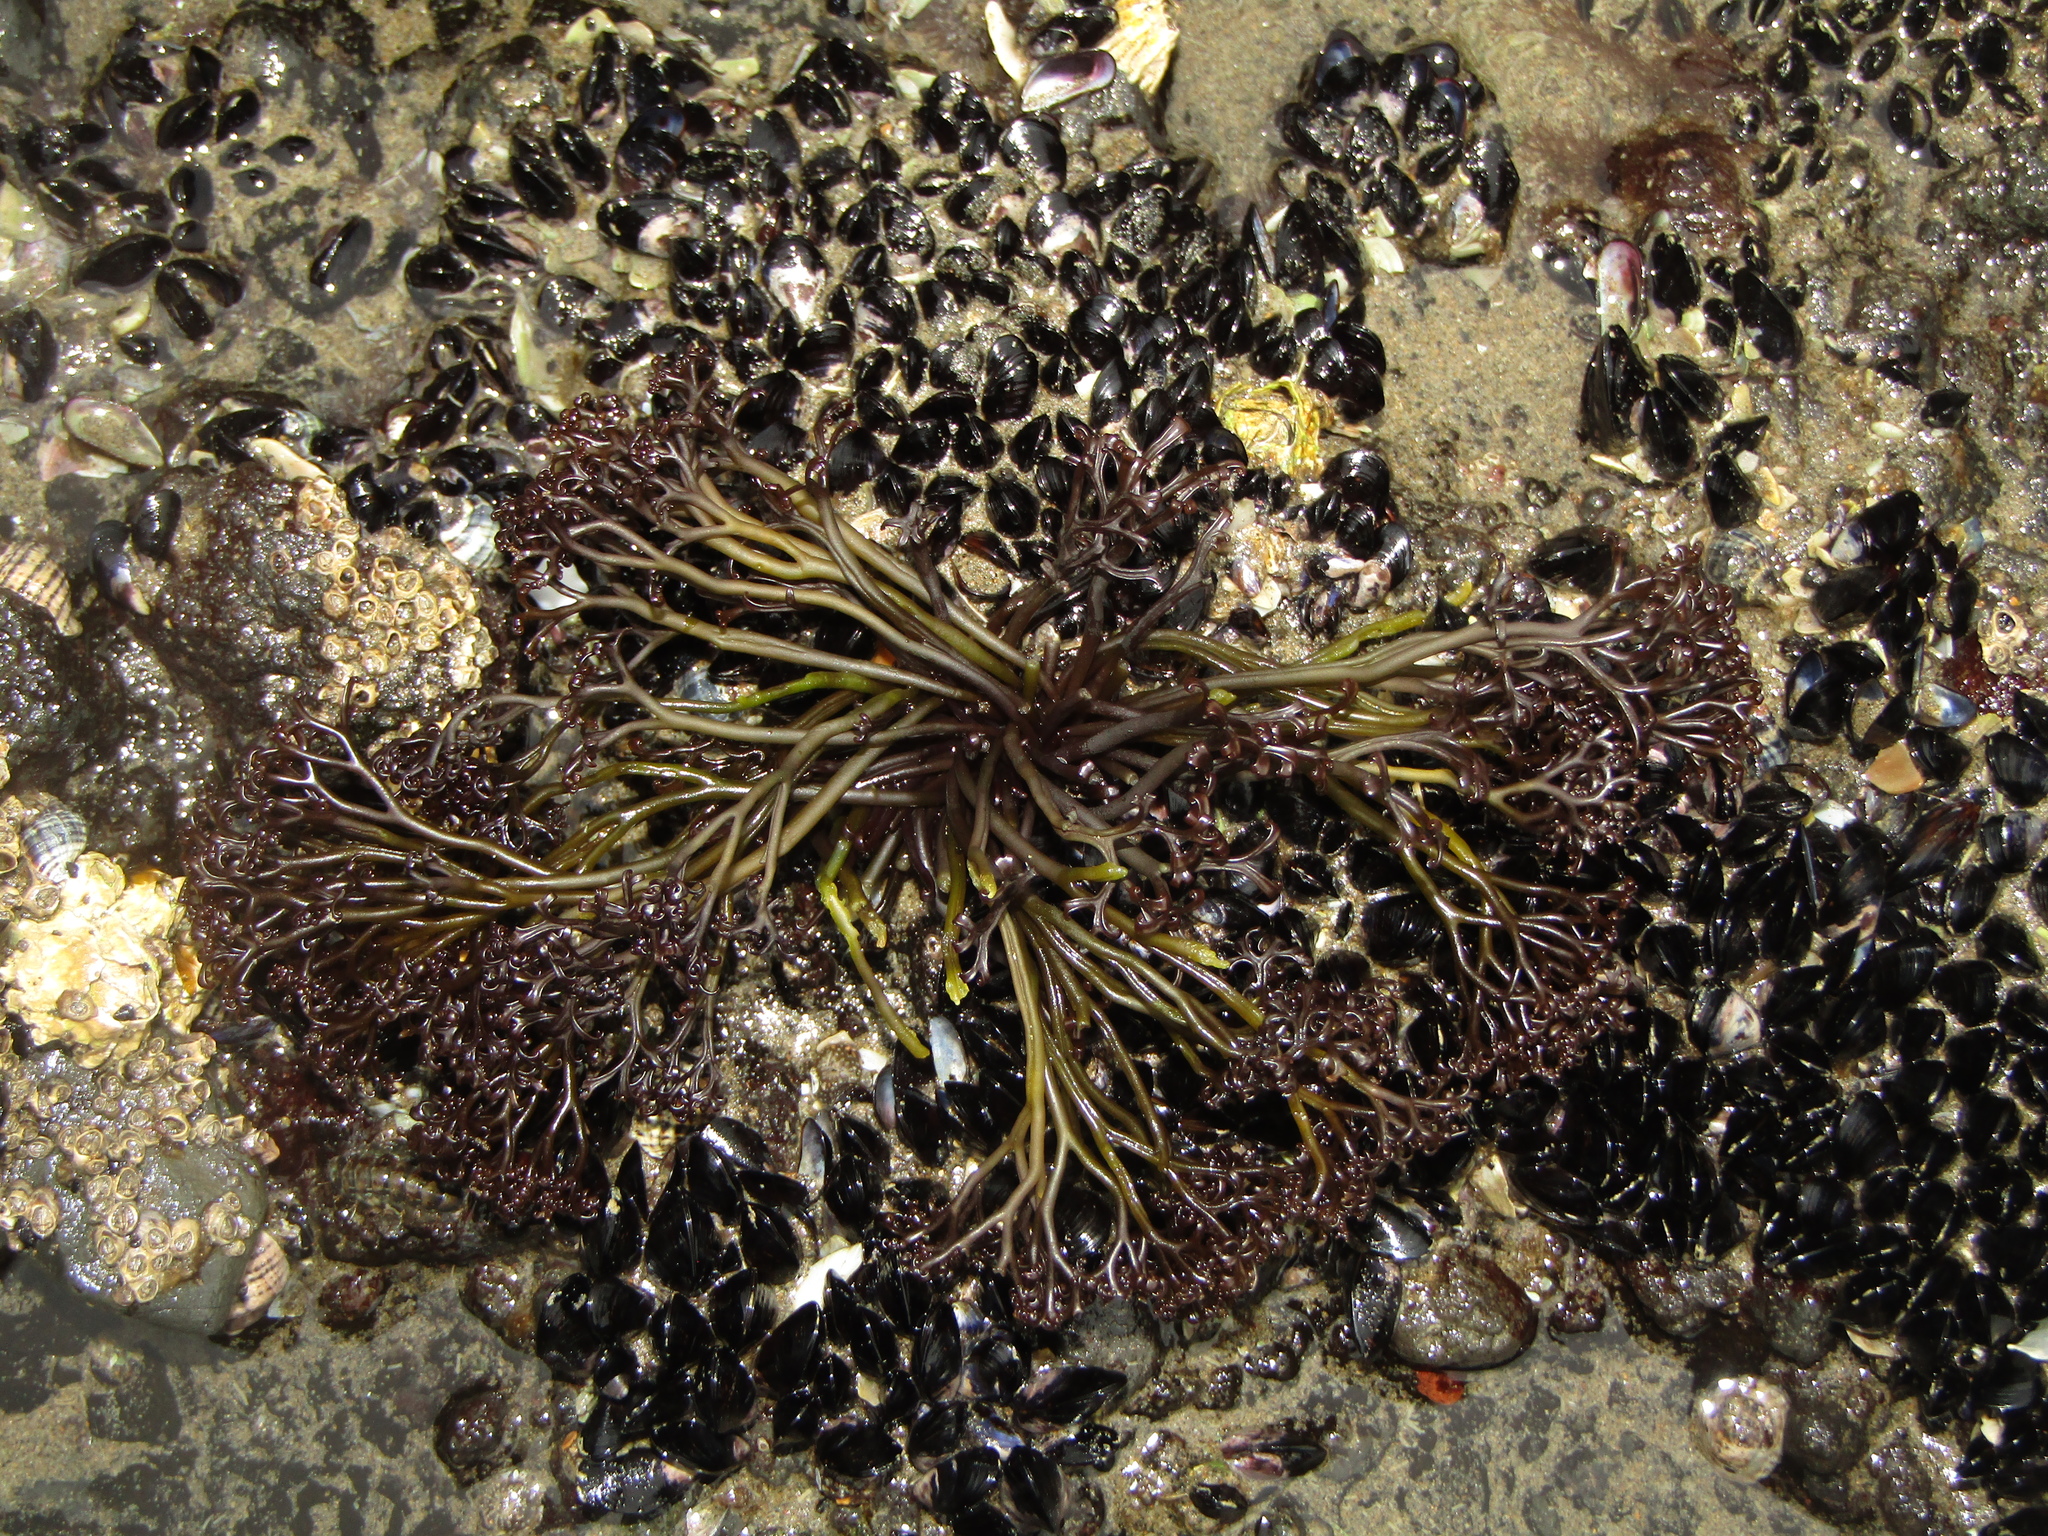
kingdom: Plantae
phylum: Rhodophyta
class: Florideophyceae
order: Gigartinales
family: Gigartinaceae
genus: Psilophycus
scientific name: Psilophycus alveatus
